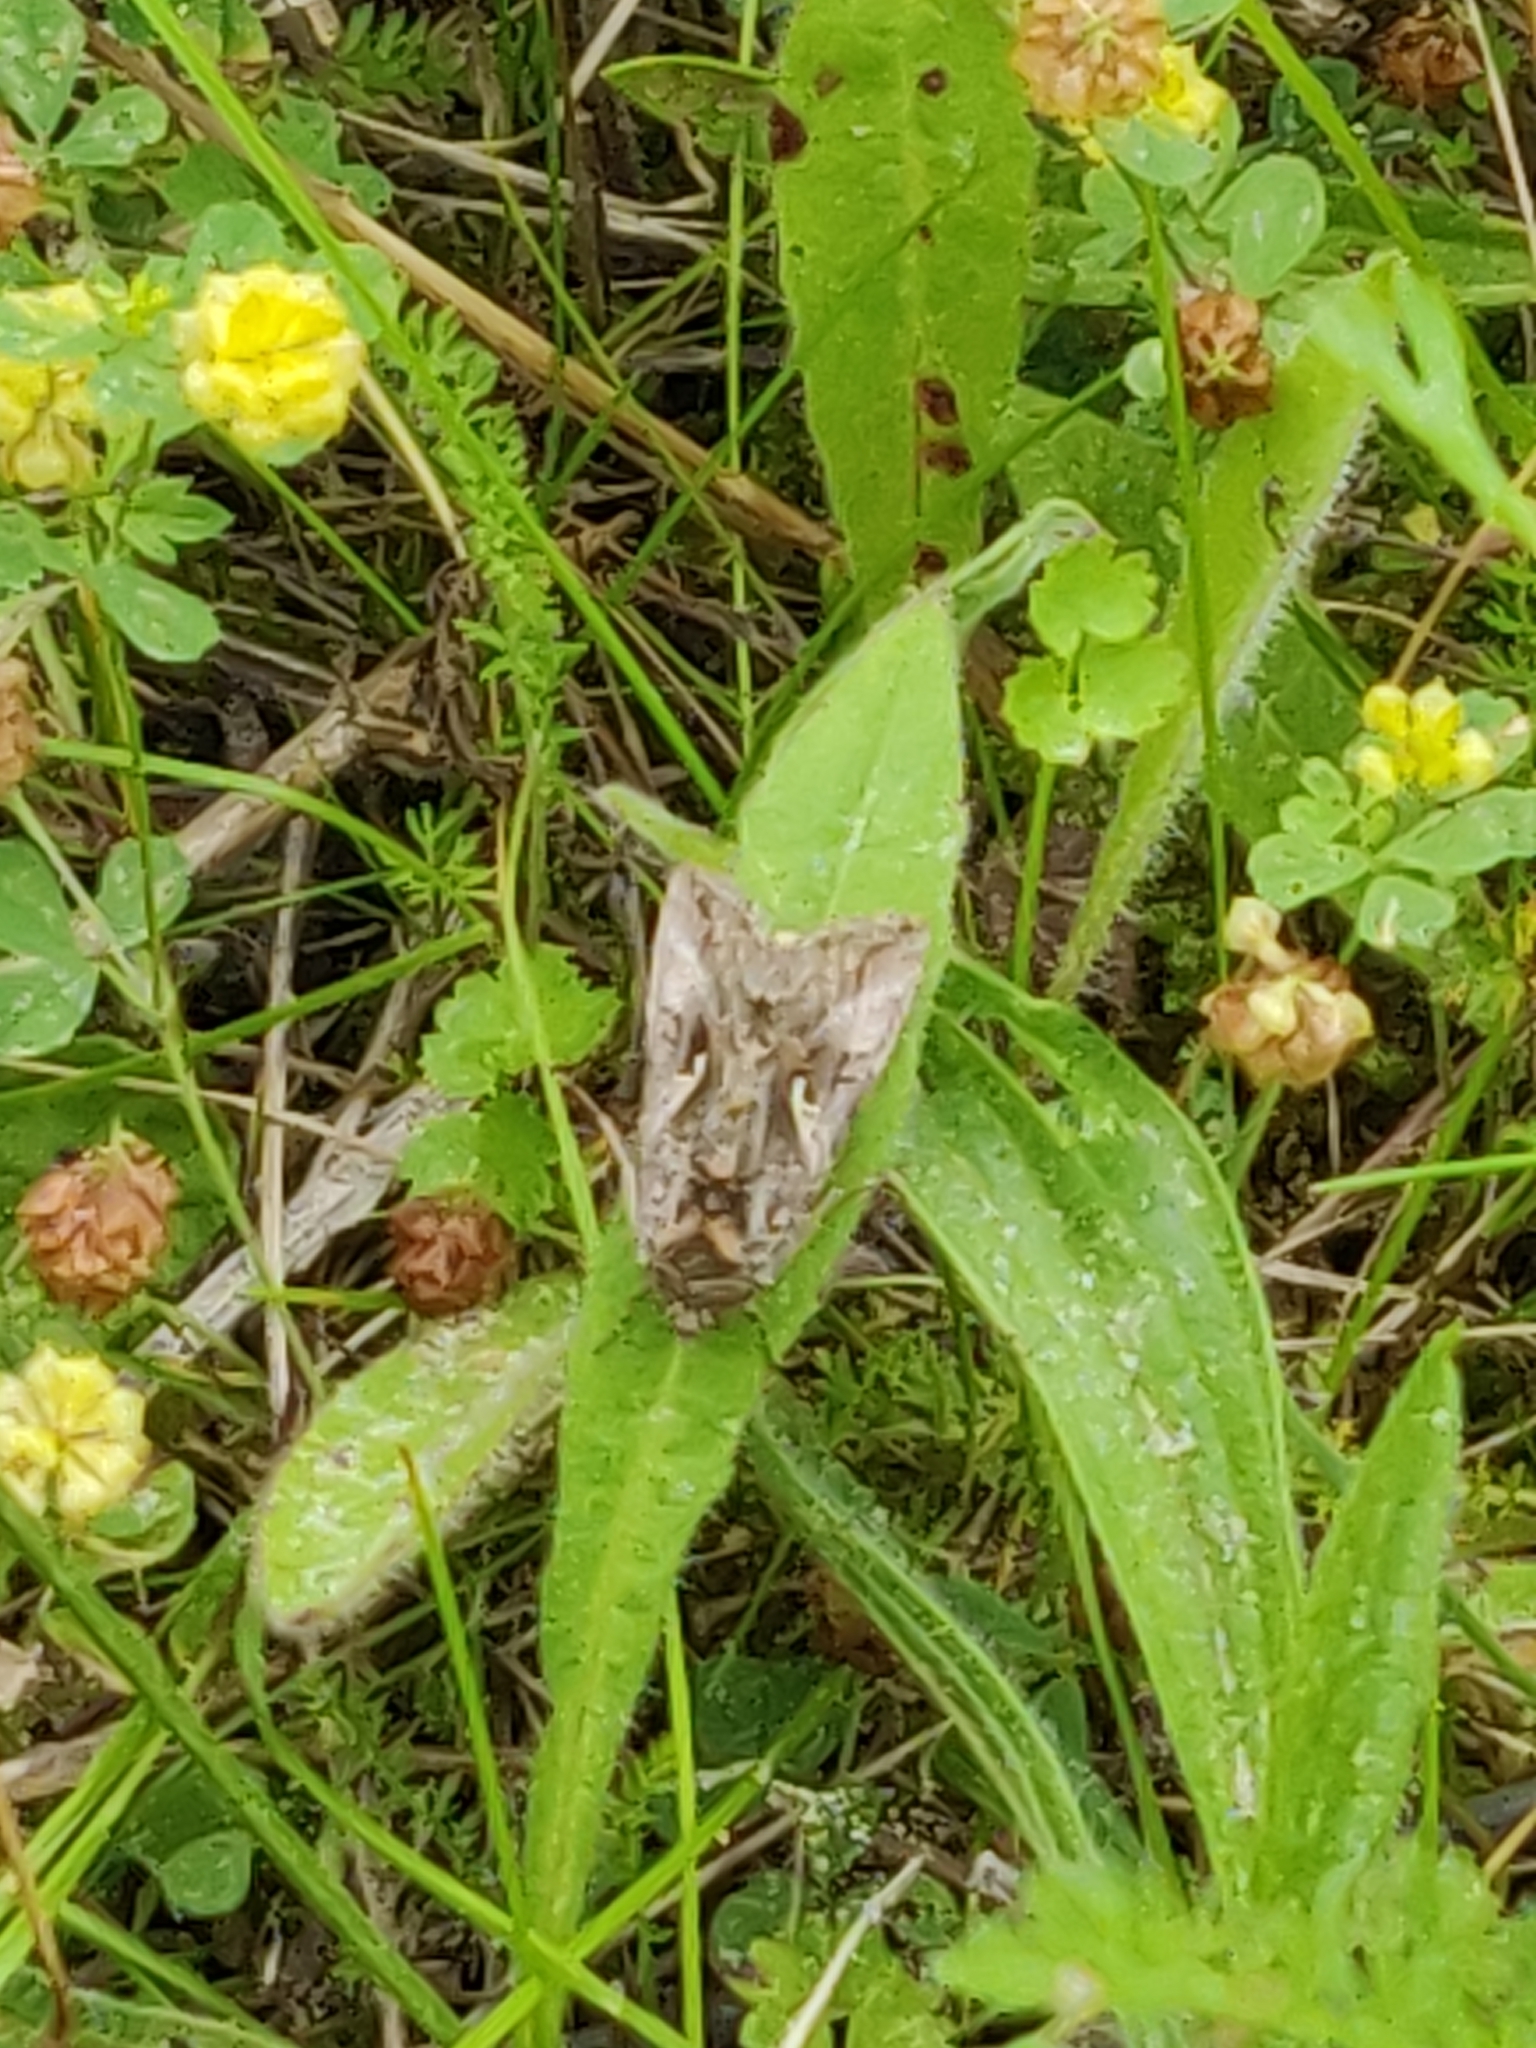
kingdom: Animalia
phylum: Arthropoda
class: Insecta
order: Lepidoptera
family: Noctuidae
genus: Autographa
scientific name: Autographa gamma
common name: Silver y
